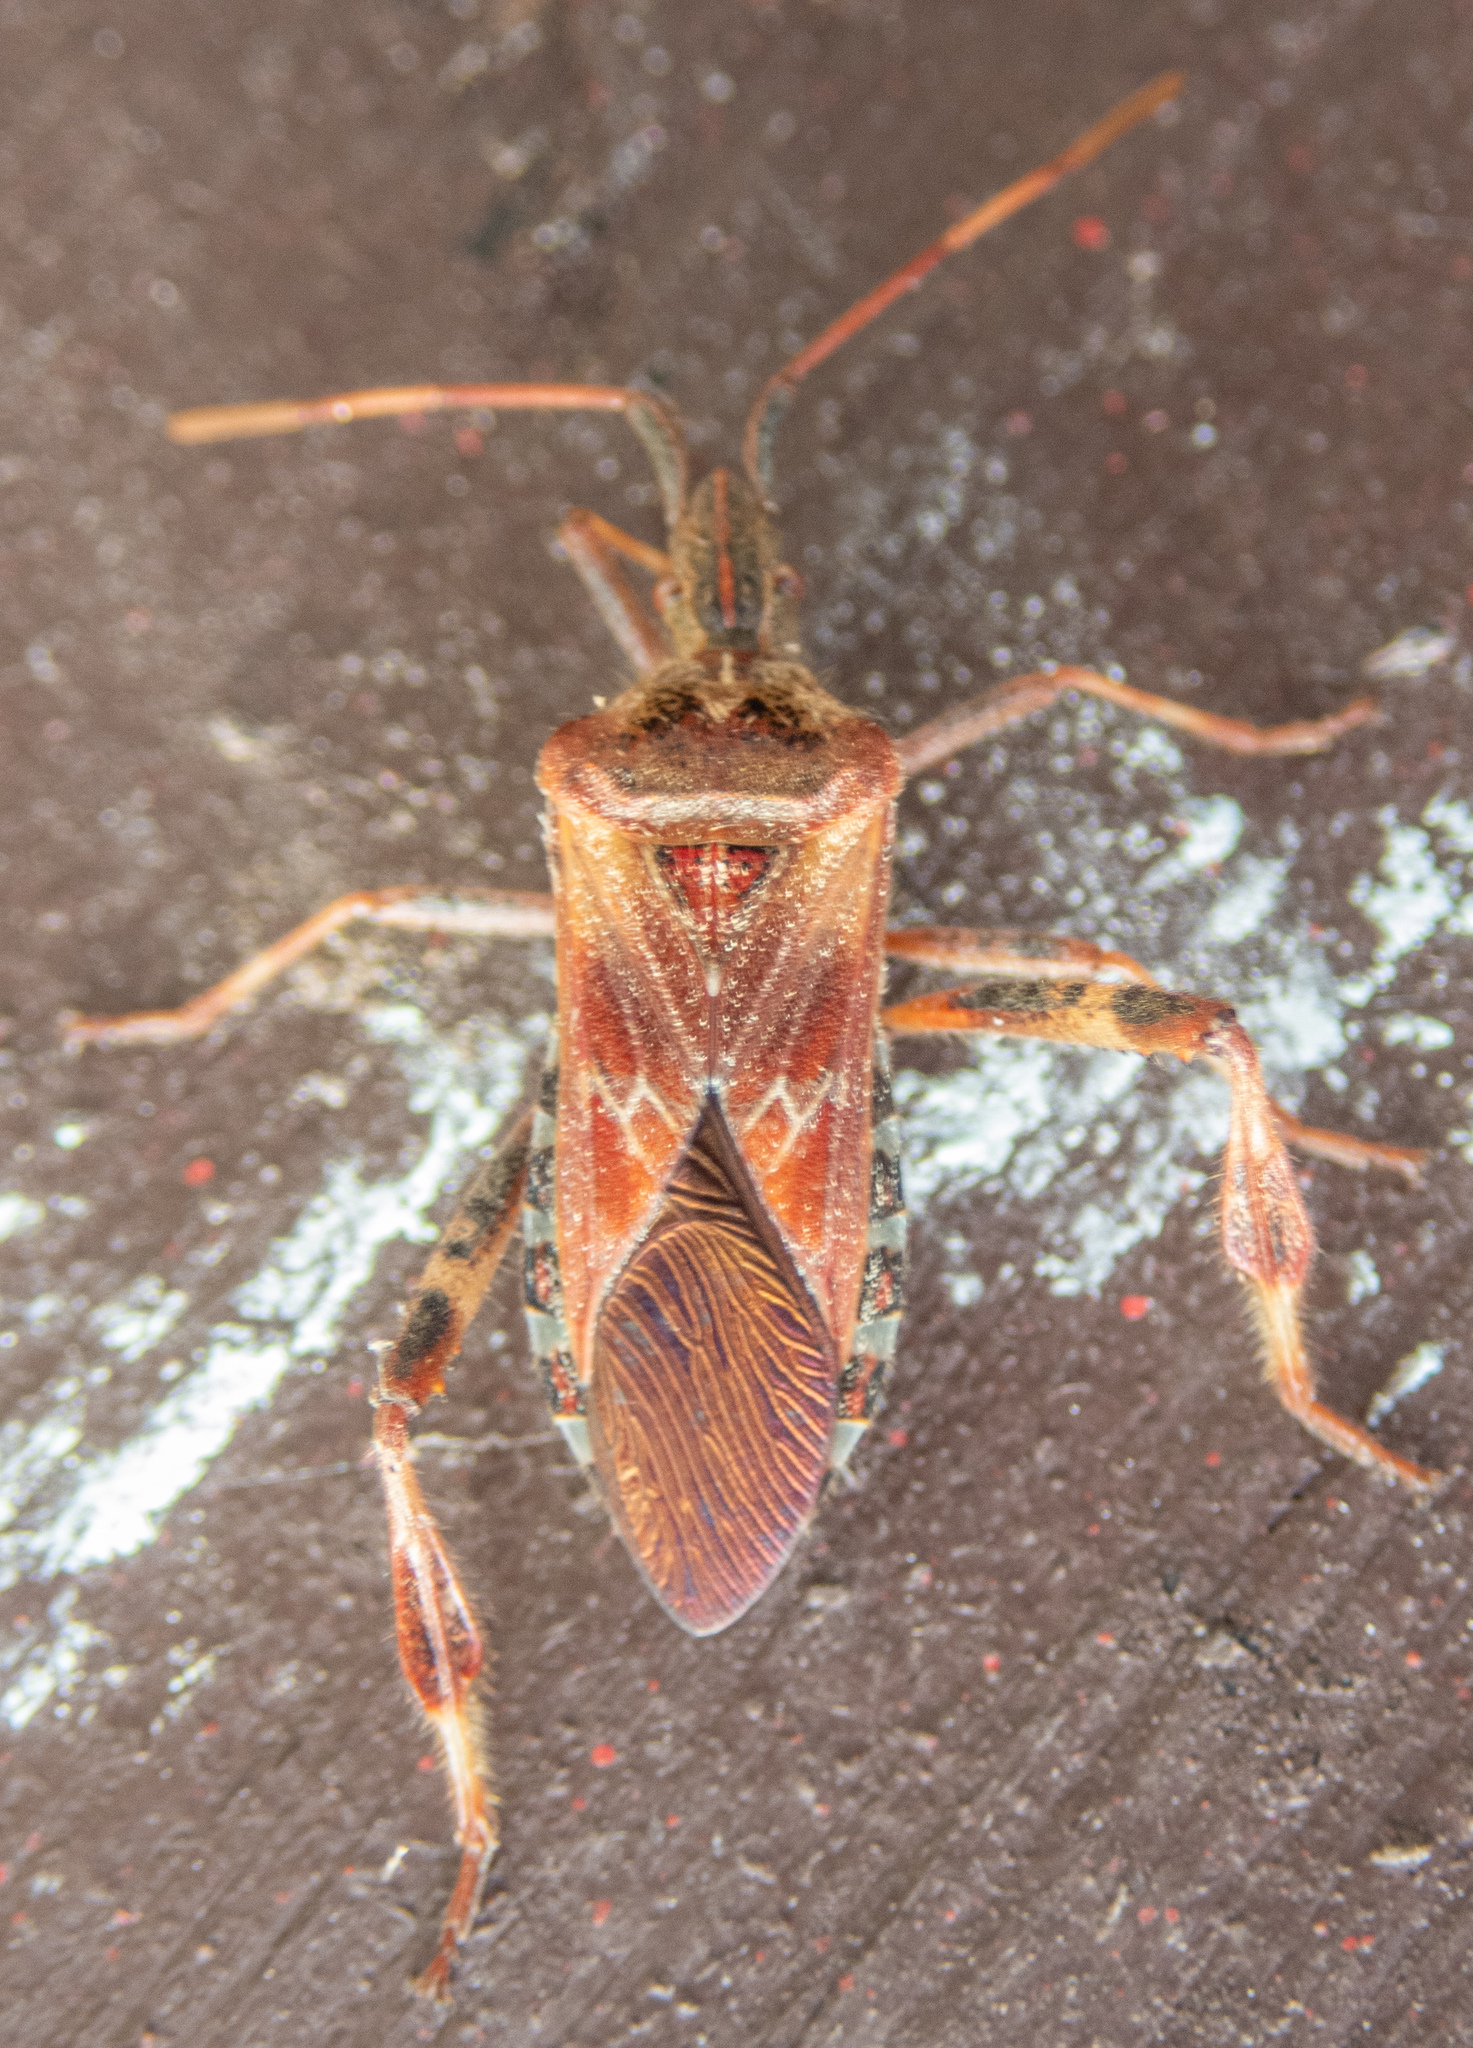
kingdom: Animalia
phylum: Arthropoda
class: Insecta
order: Hemiptera
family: Coreidae
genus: Leptoglossus
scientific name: Leptoglossus occidentalis
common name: Western conifer-seed bug
